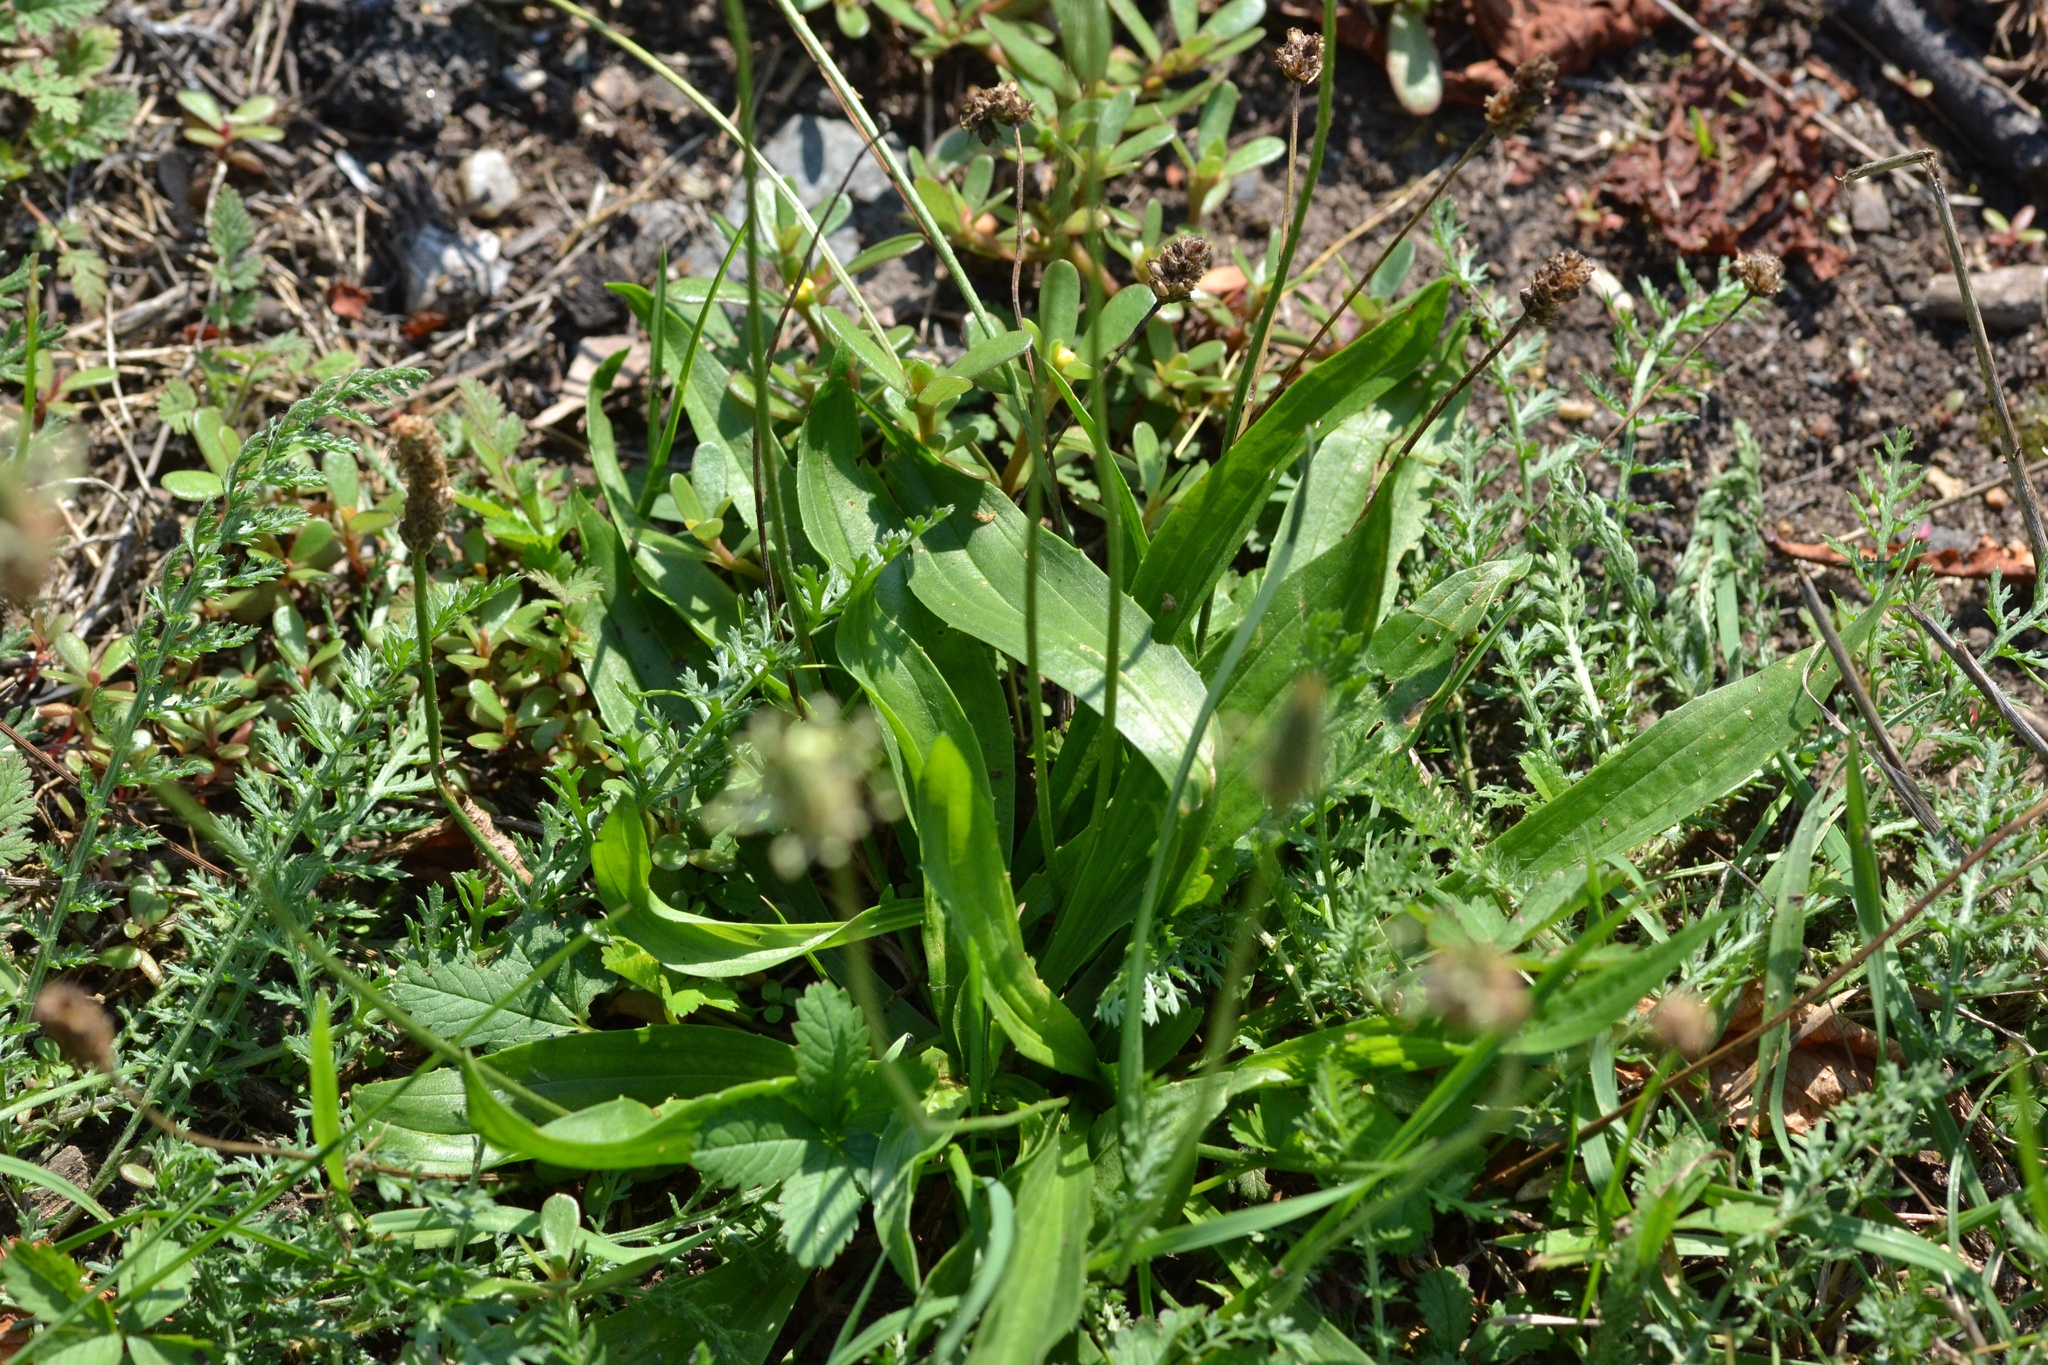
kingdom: Plantae
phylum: Tracheophyta
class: Magnoliopsida
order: Lamiales
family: Plantaginaceae
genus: Plantago
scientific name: Plantago lanceolata
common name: Ribwort plantain
